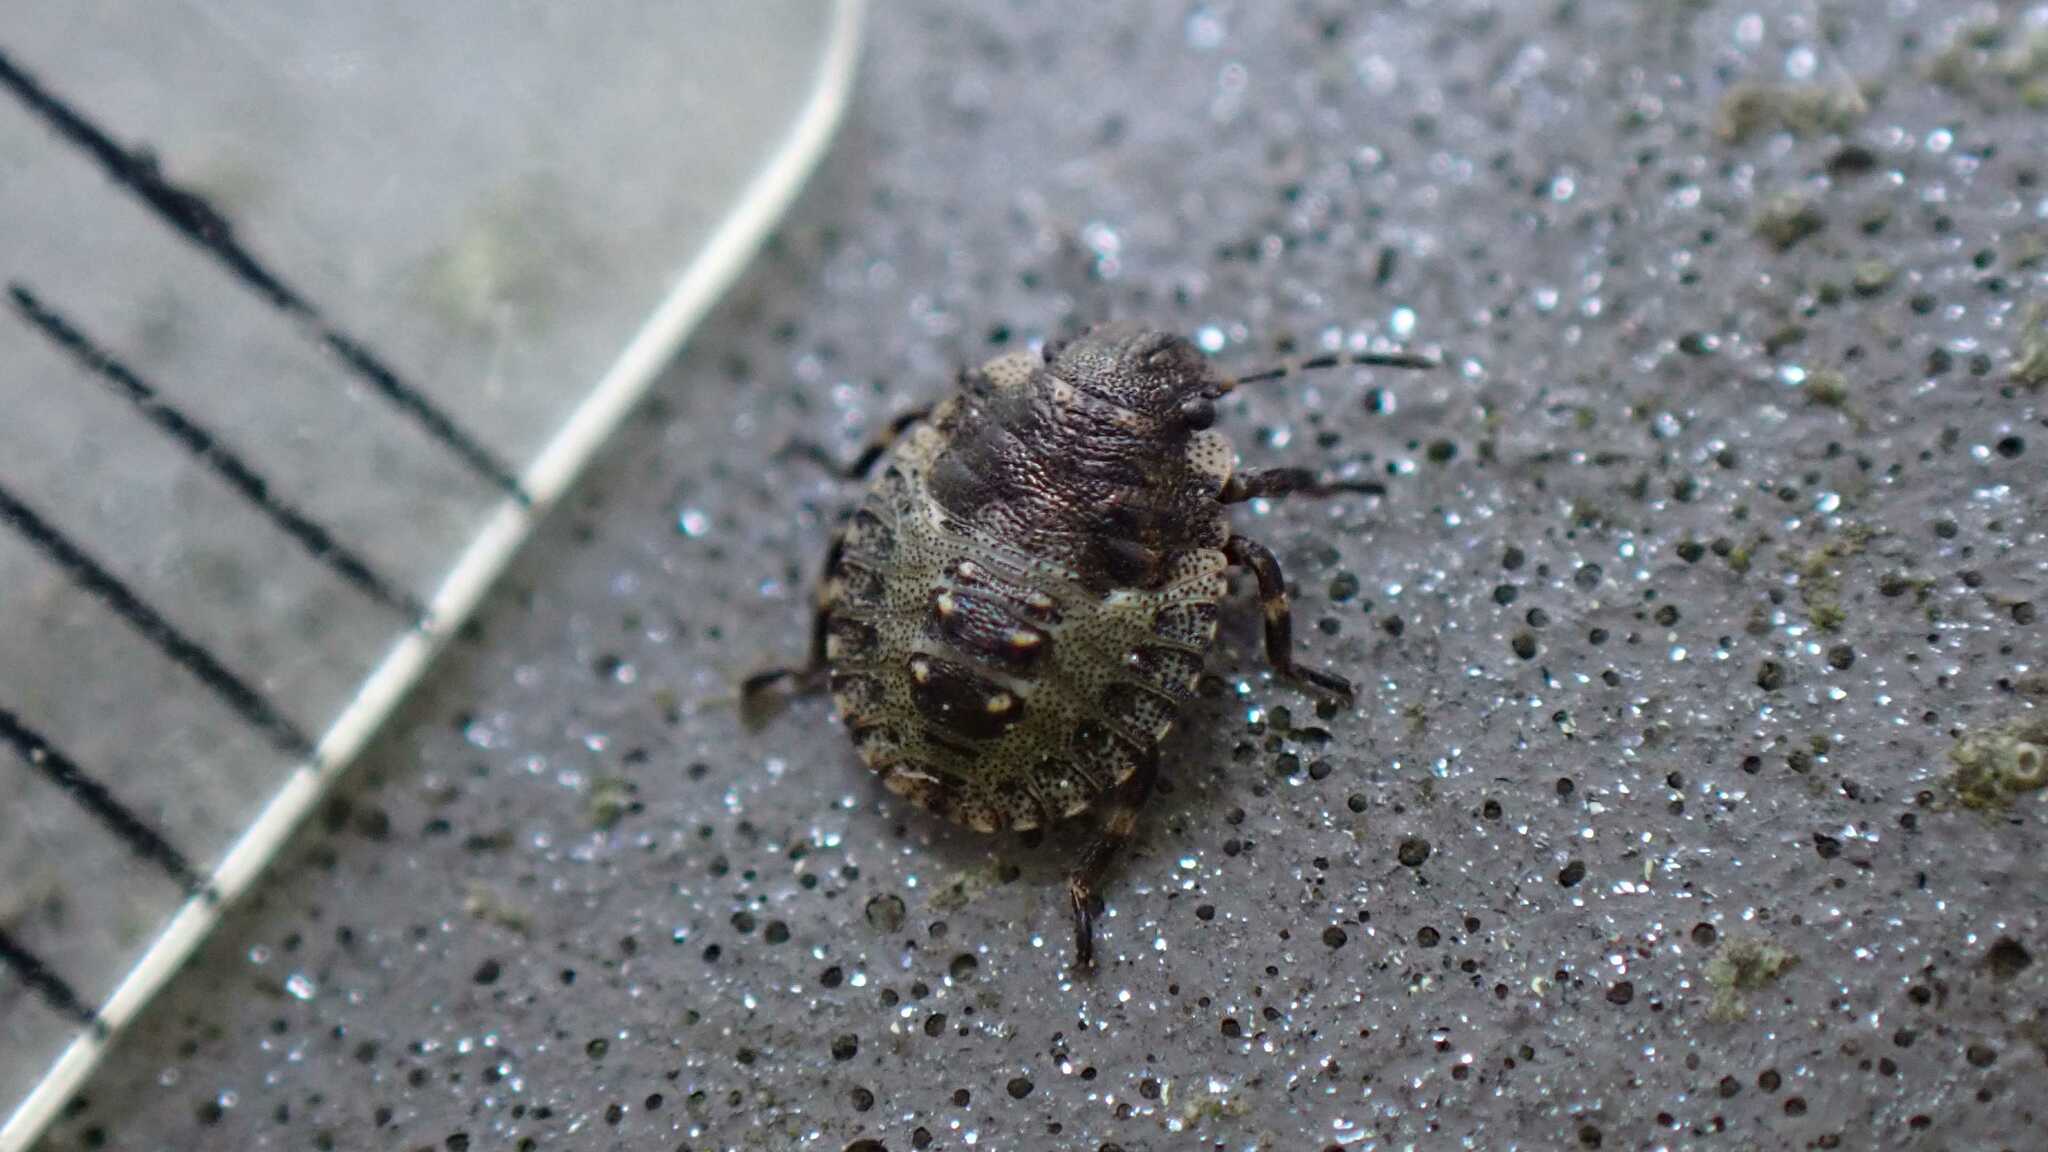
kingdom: Animalia
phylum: Arthropoda
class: Insecta
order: Hemiptera
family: Pentatomidae
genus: Pentatoma
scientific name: Pentatoma rufipes
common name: Forest bug
